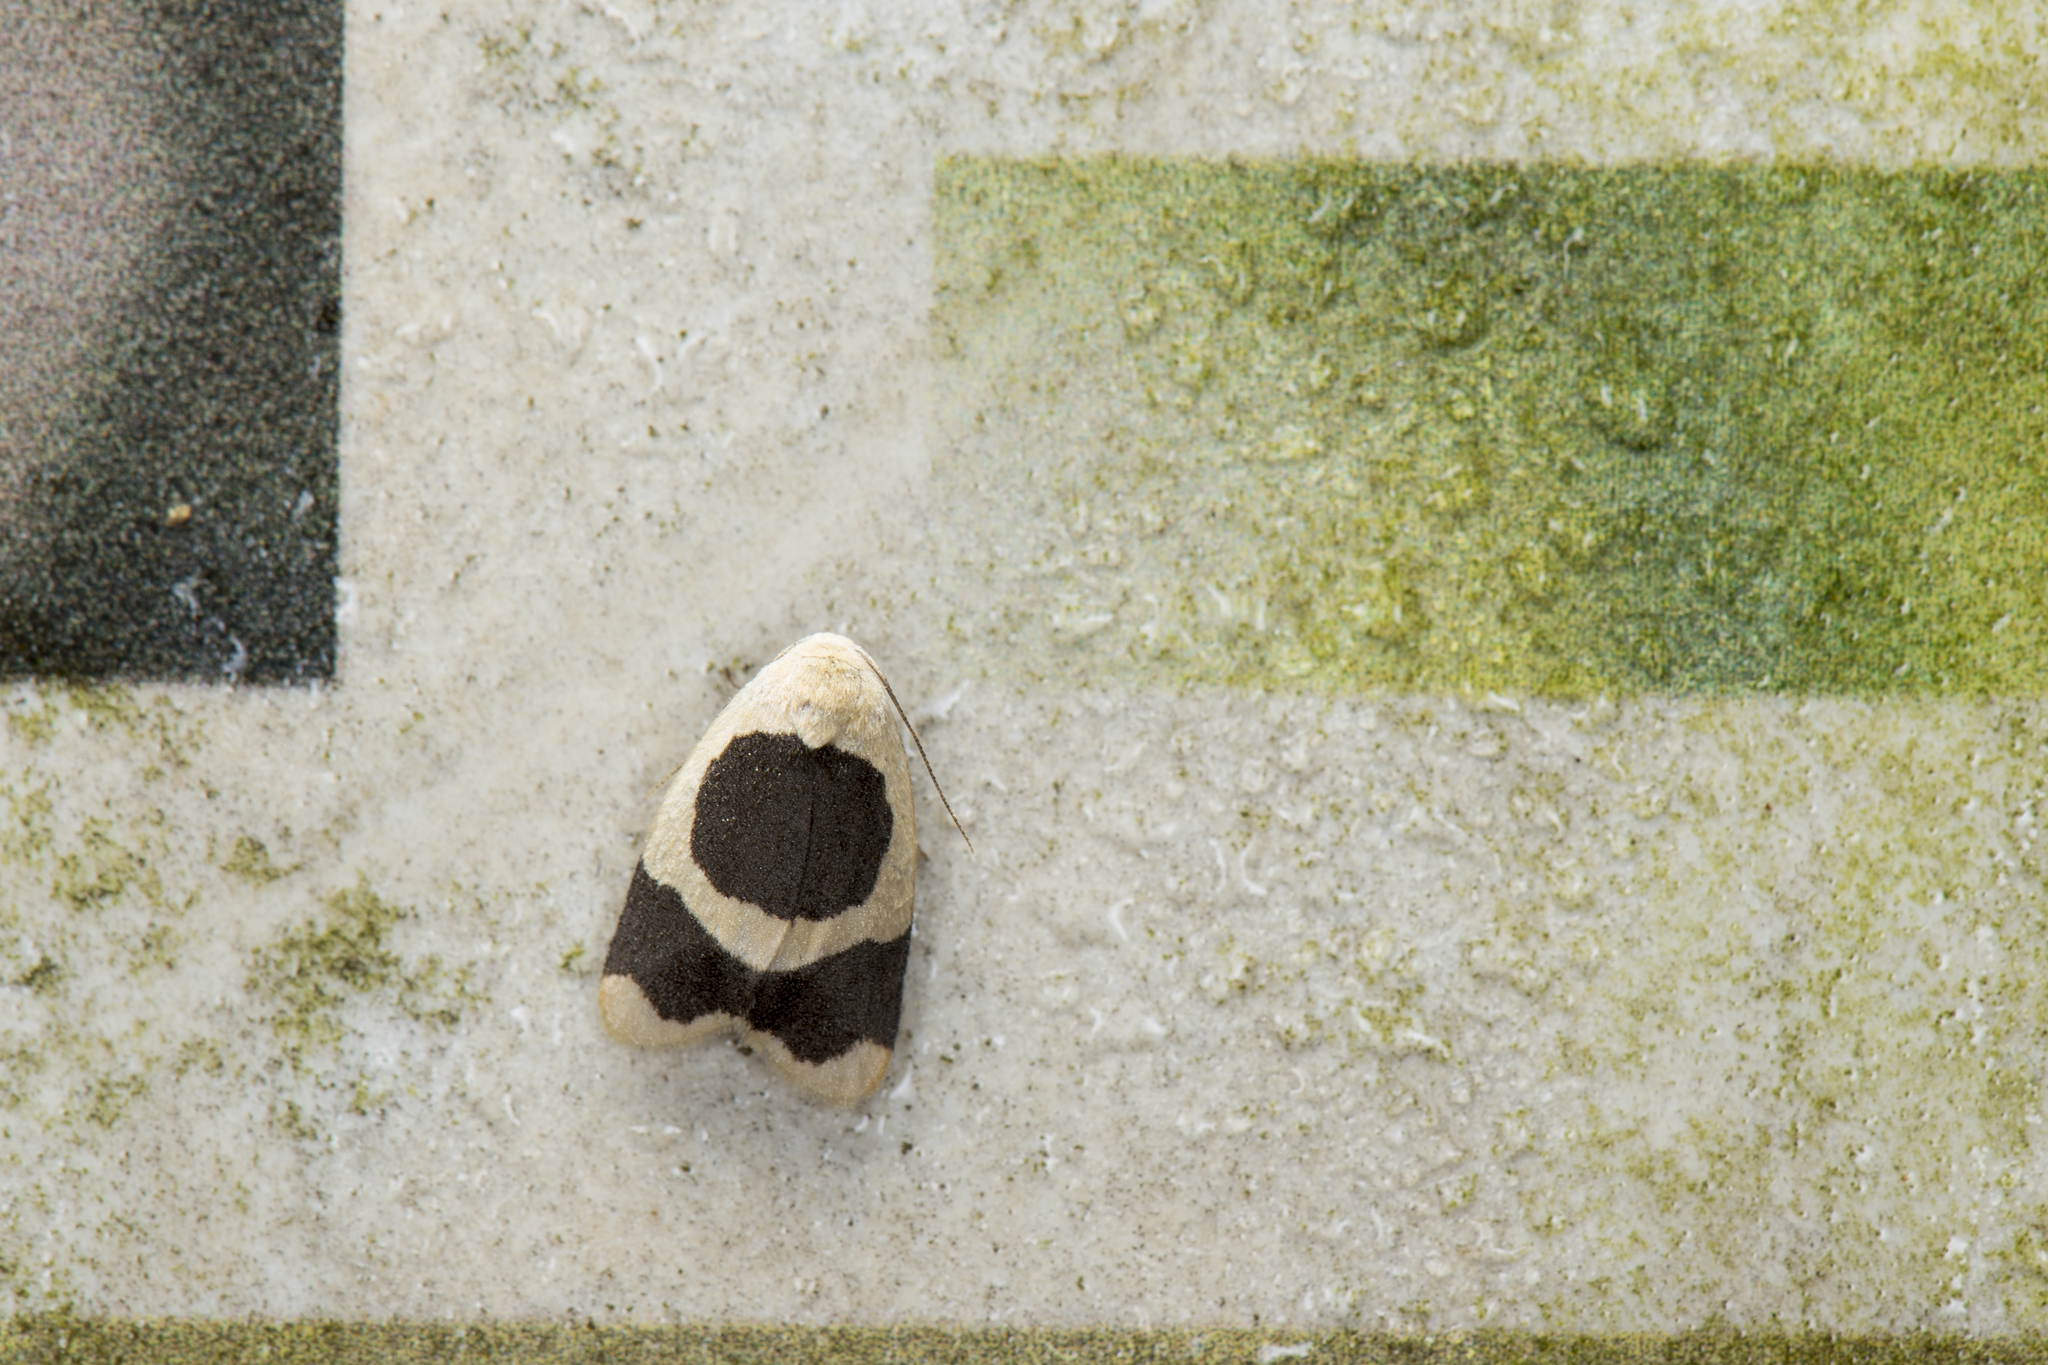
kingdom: Animalia
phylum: Arthropoda
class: Insecta
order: Lepidoptera
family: Erebidae
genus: Garudinia
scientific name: Garudinia taioana
